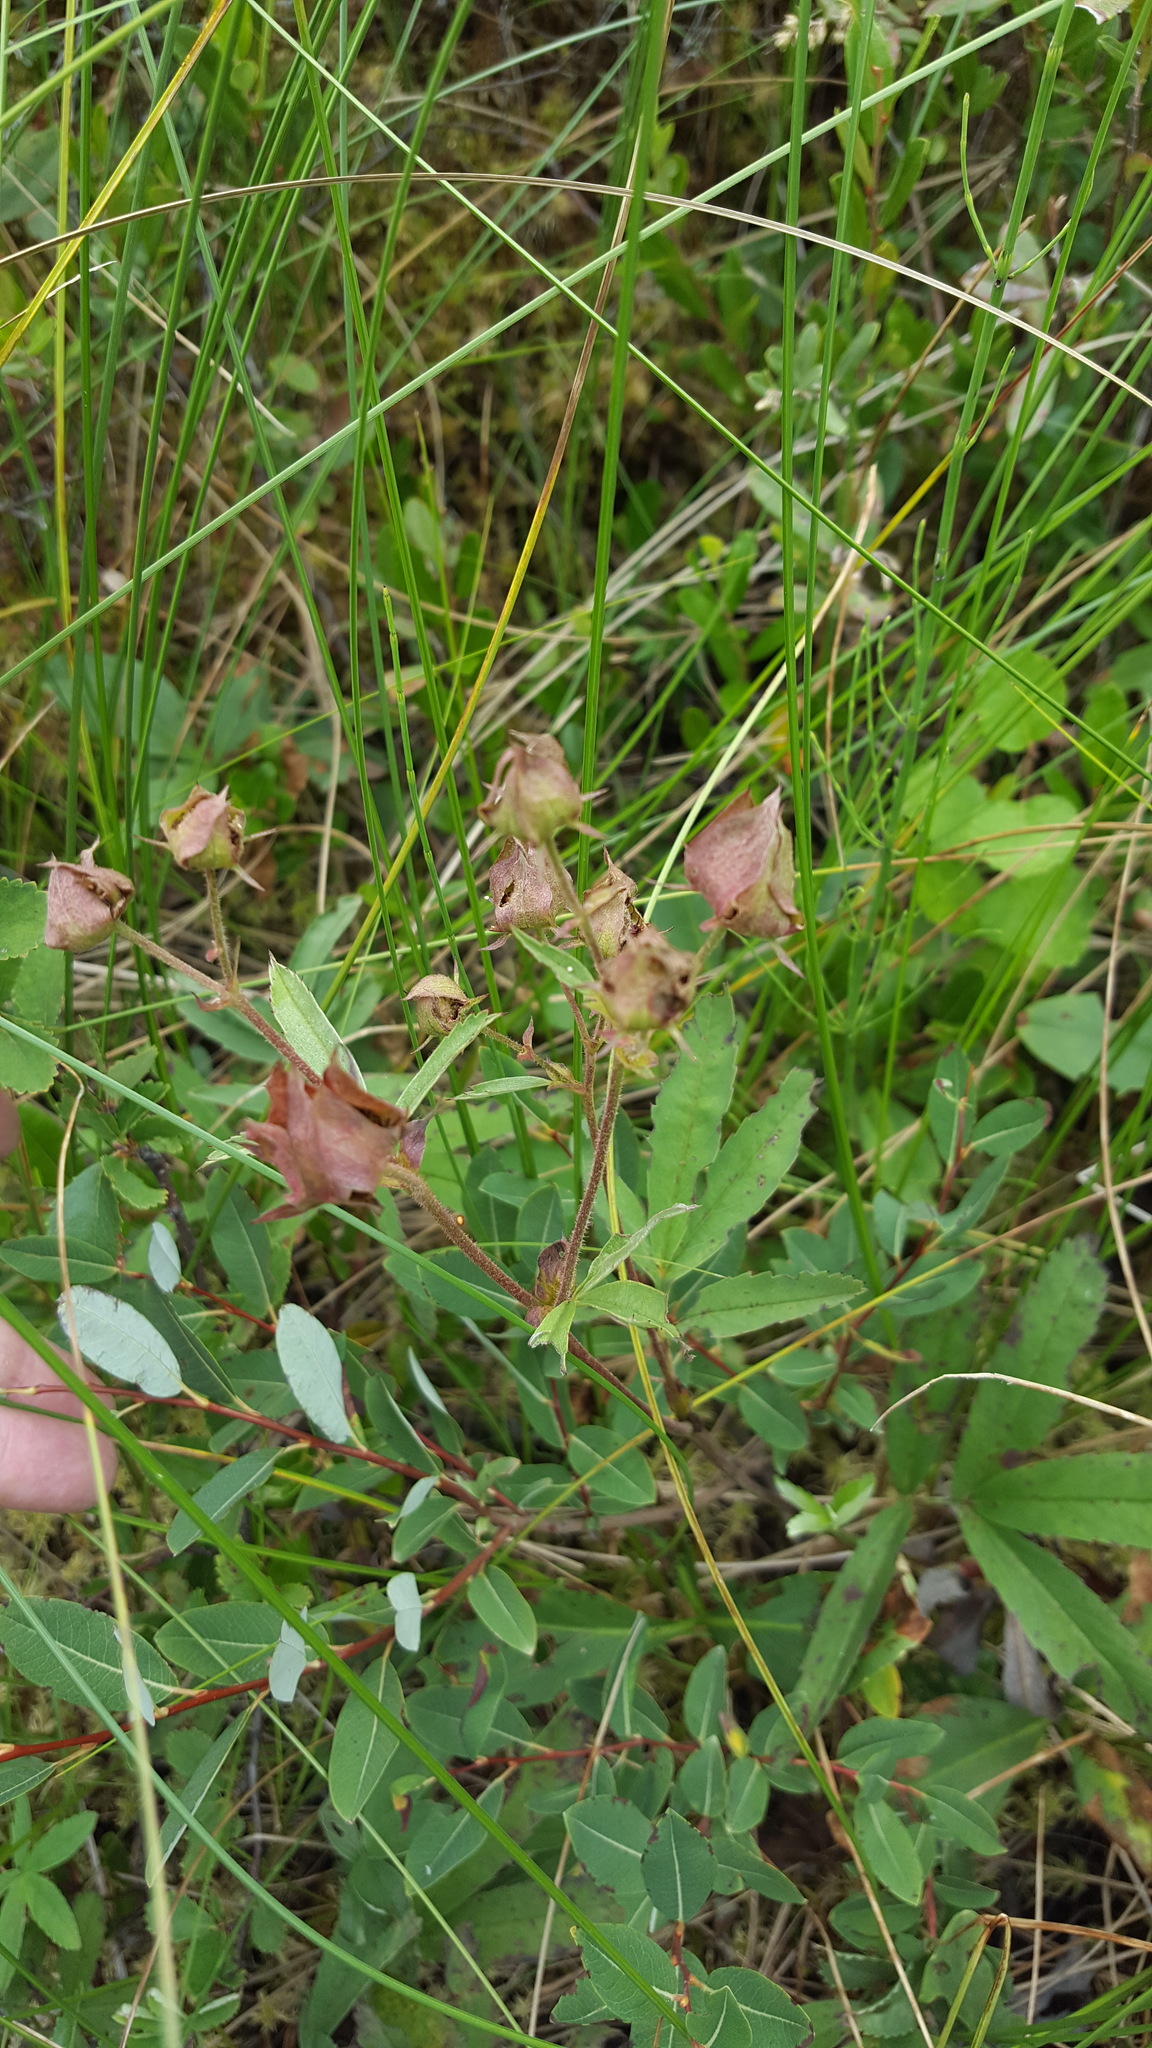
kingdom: Plantae
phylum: Tracheophyta
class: Magnoliopsida
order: Rosales
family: Rosaceae
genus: Comarum
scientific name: Comarum palustre
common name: Marsh cinquefoil
